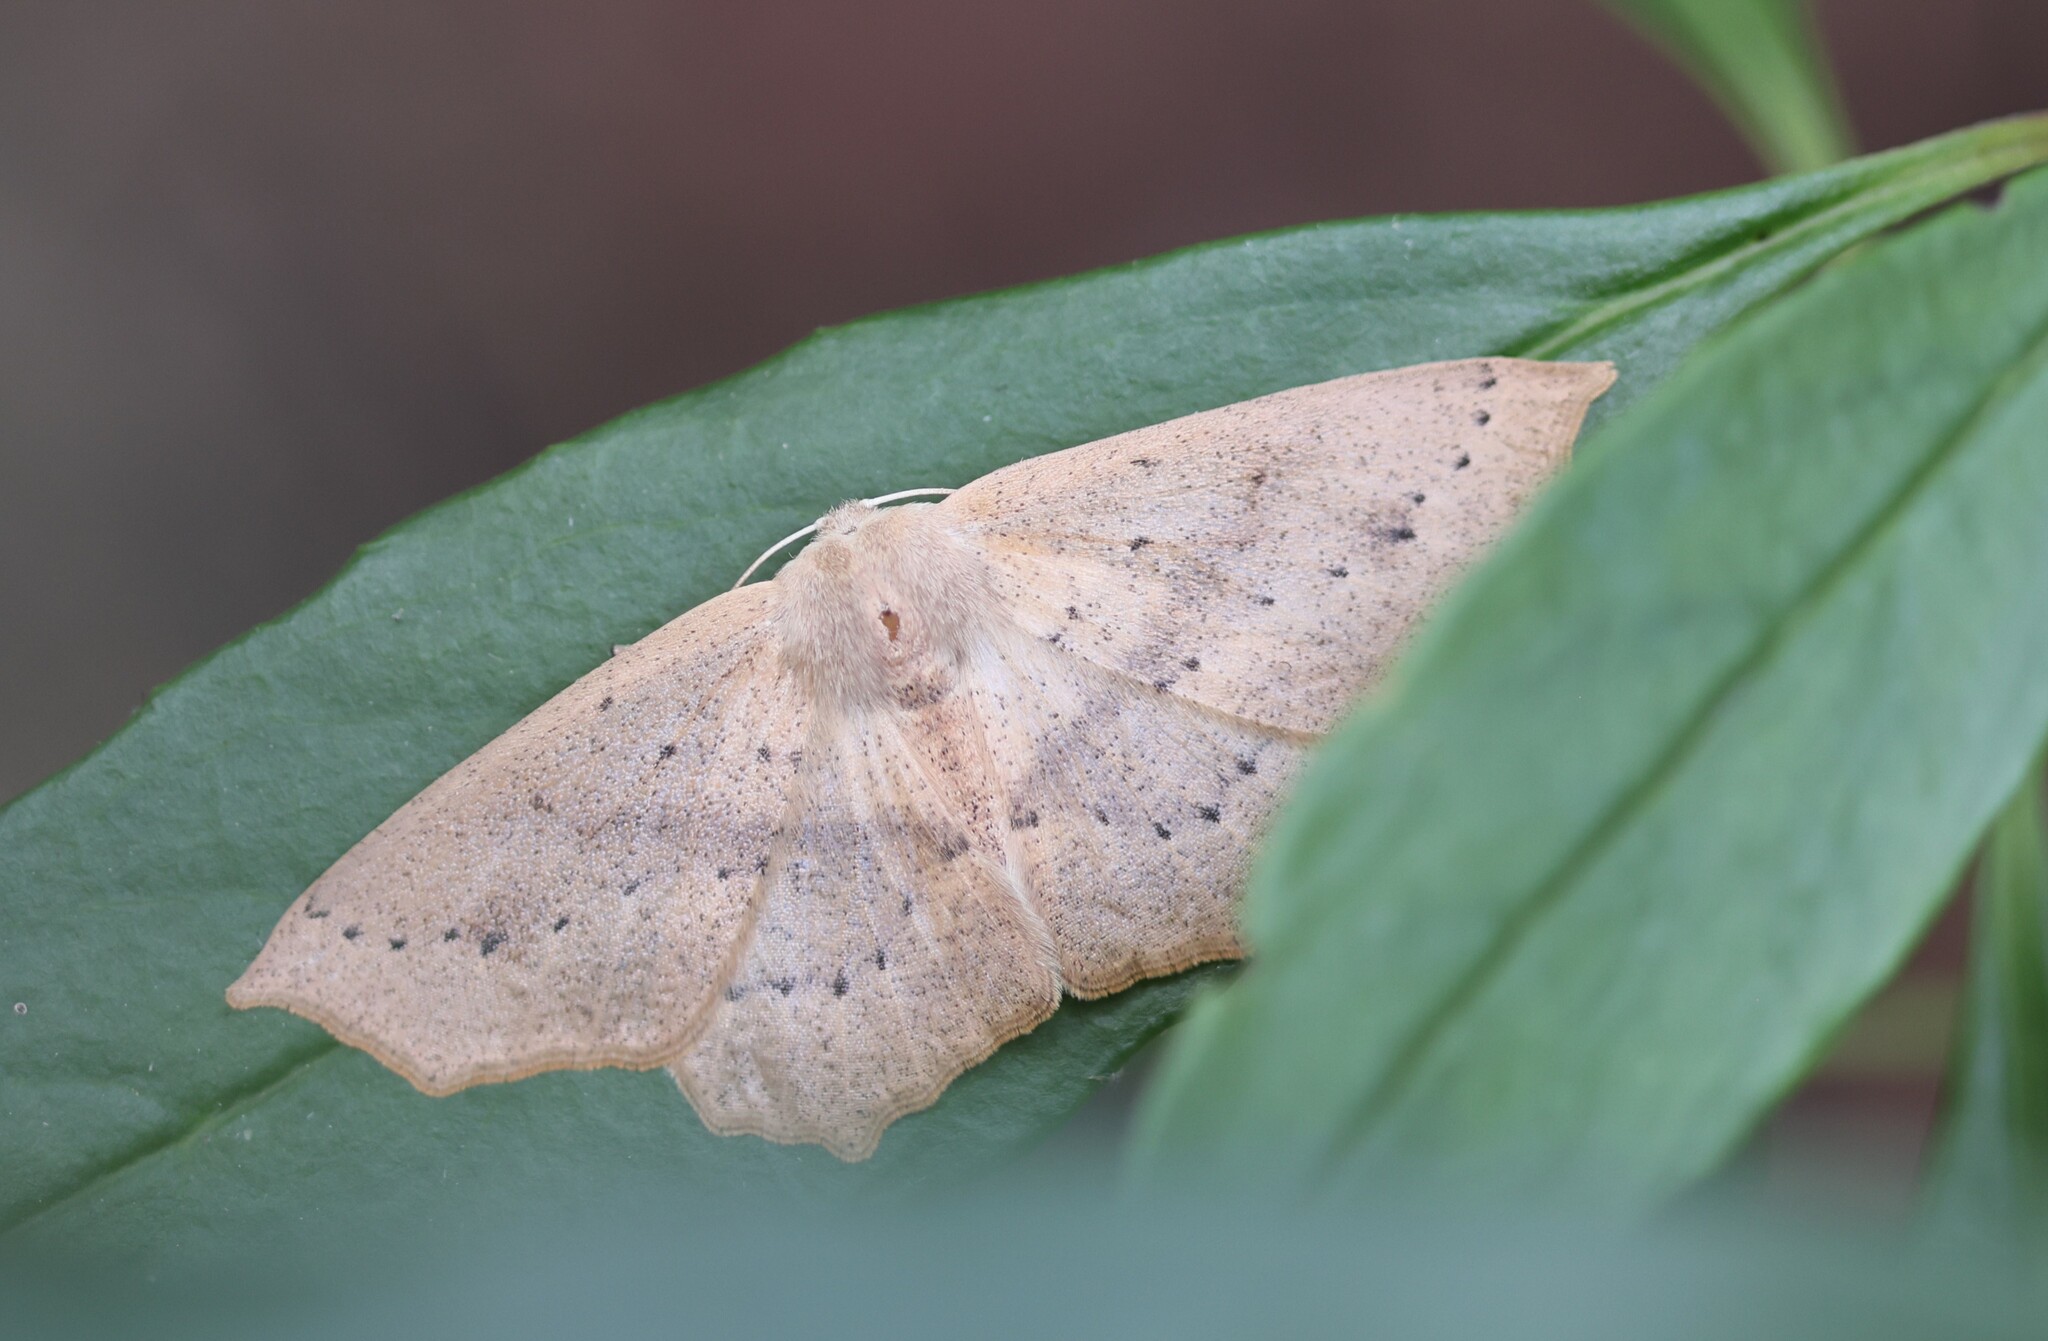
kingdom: Animalia
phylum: Arthropoda
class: Insecta
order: Lepidoptera
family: Geometridae
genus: Sabulodes
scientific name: Sabulodes aegrotata
